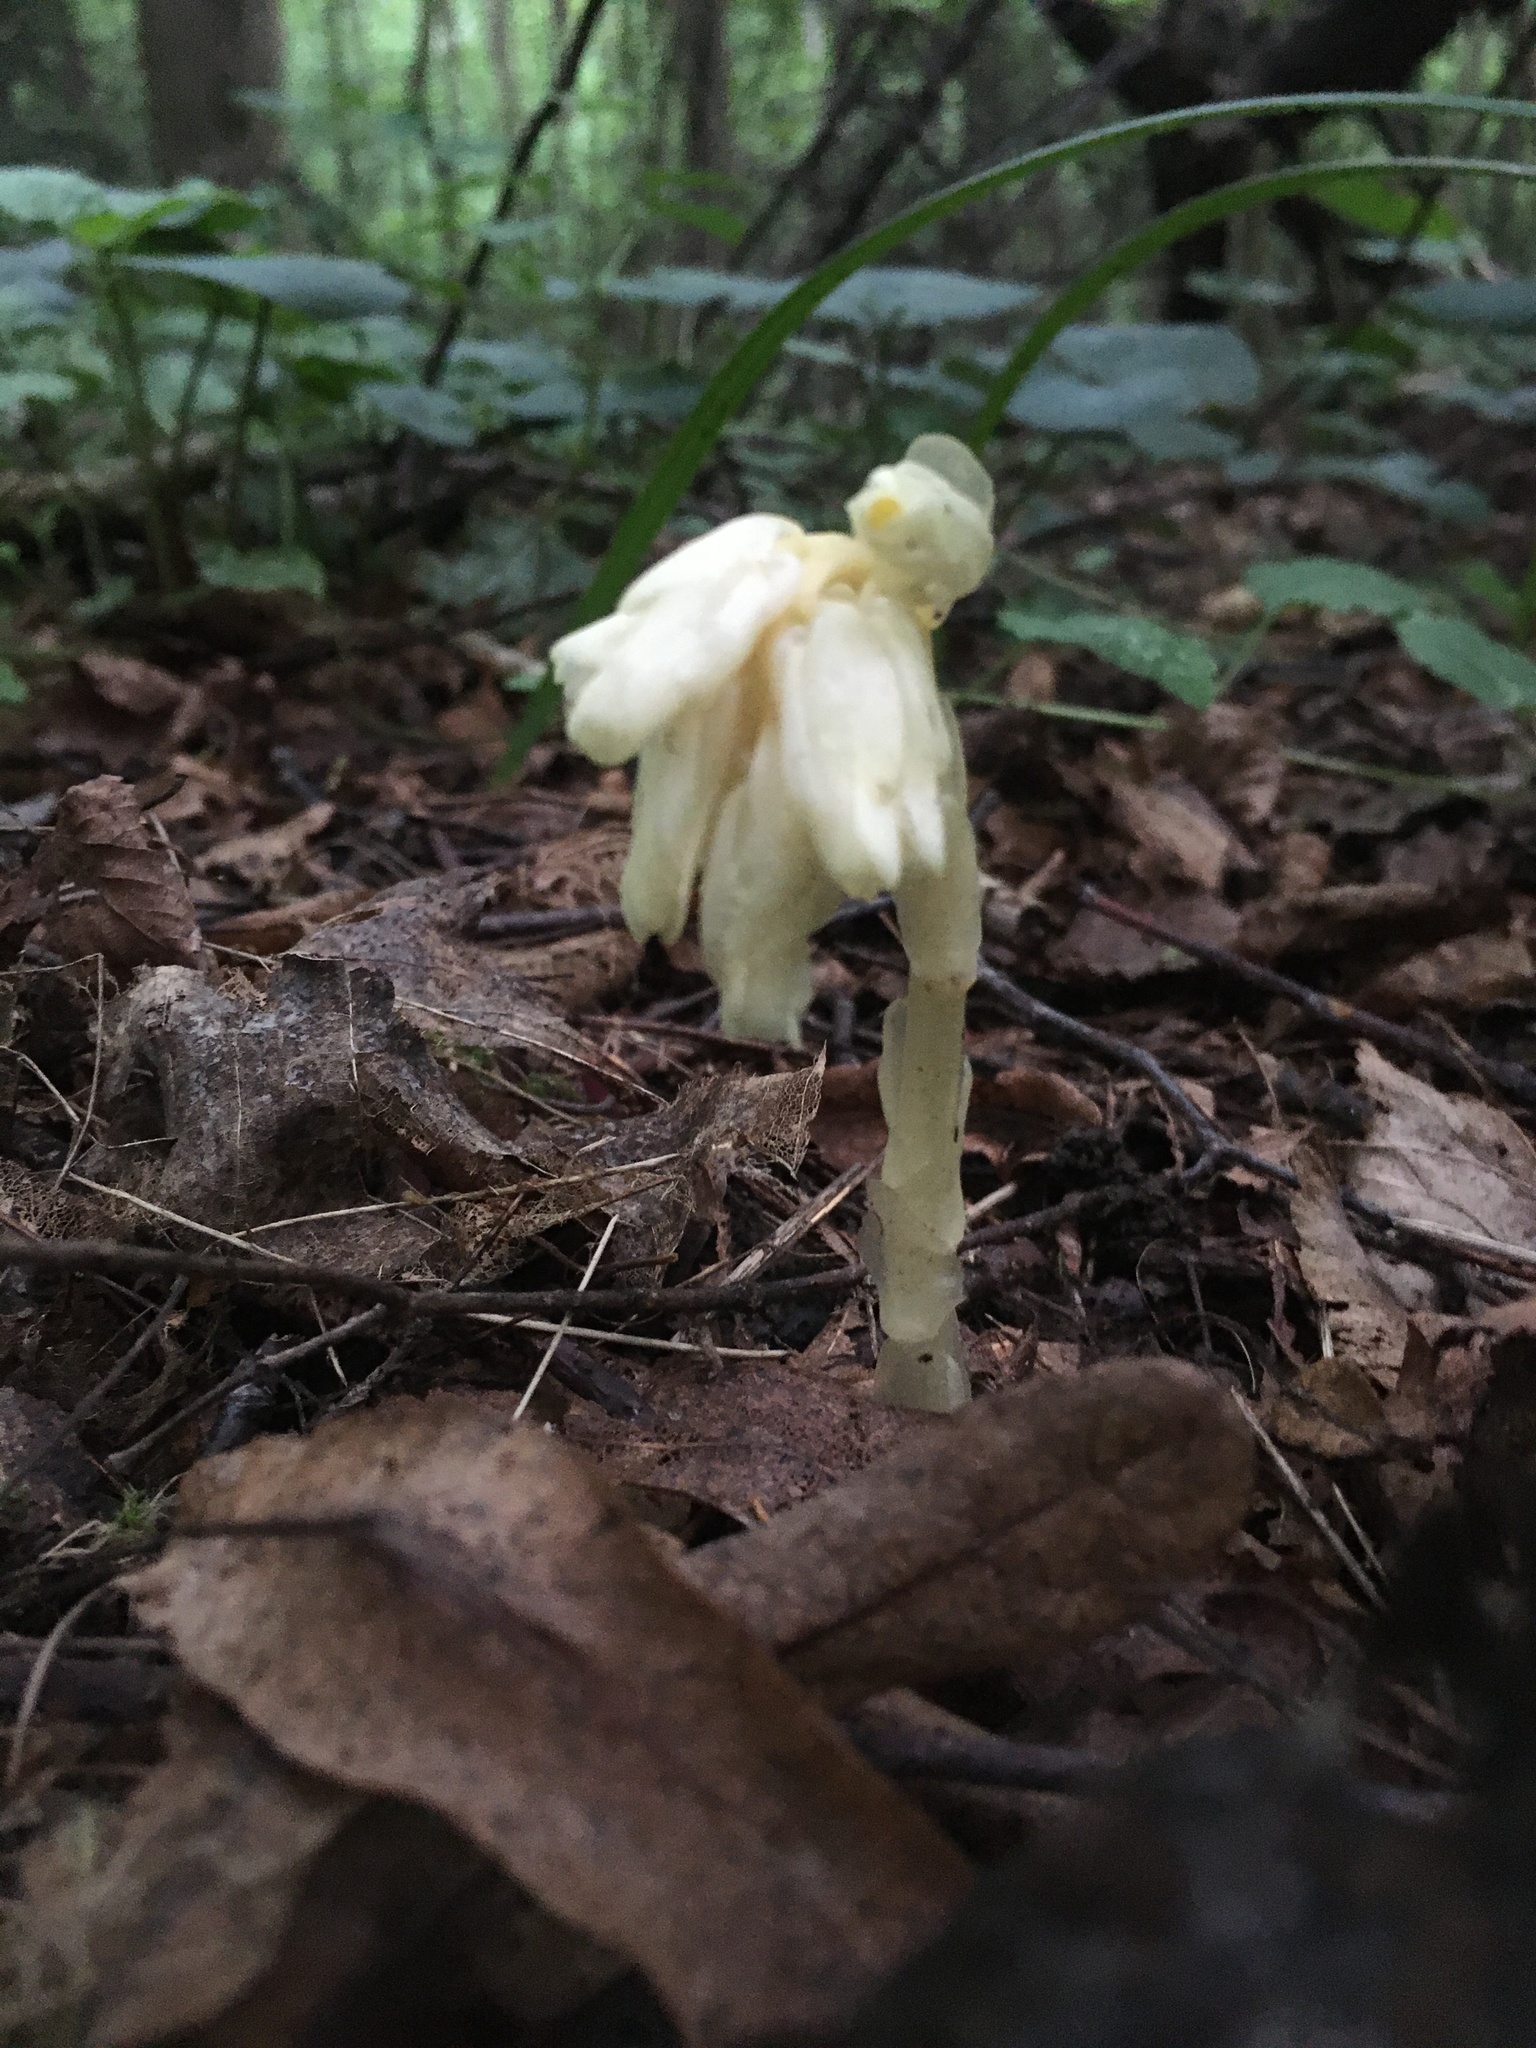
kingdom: Plantae
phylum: Tracheophyta
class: Magnoliopsida
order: Ericales
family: Ericaceae
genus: Hypopitys
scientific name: Hypopitys monotropa
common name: Yellow bird's-nest
